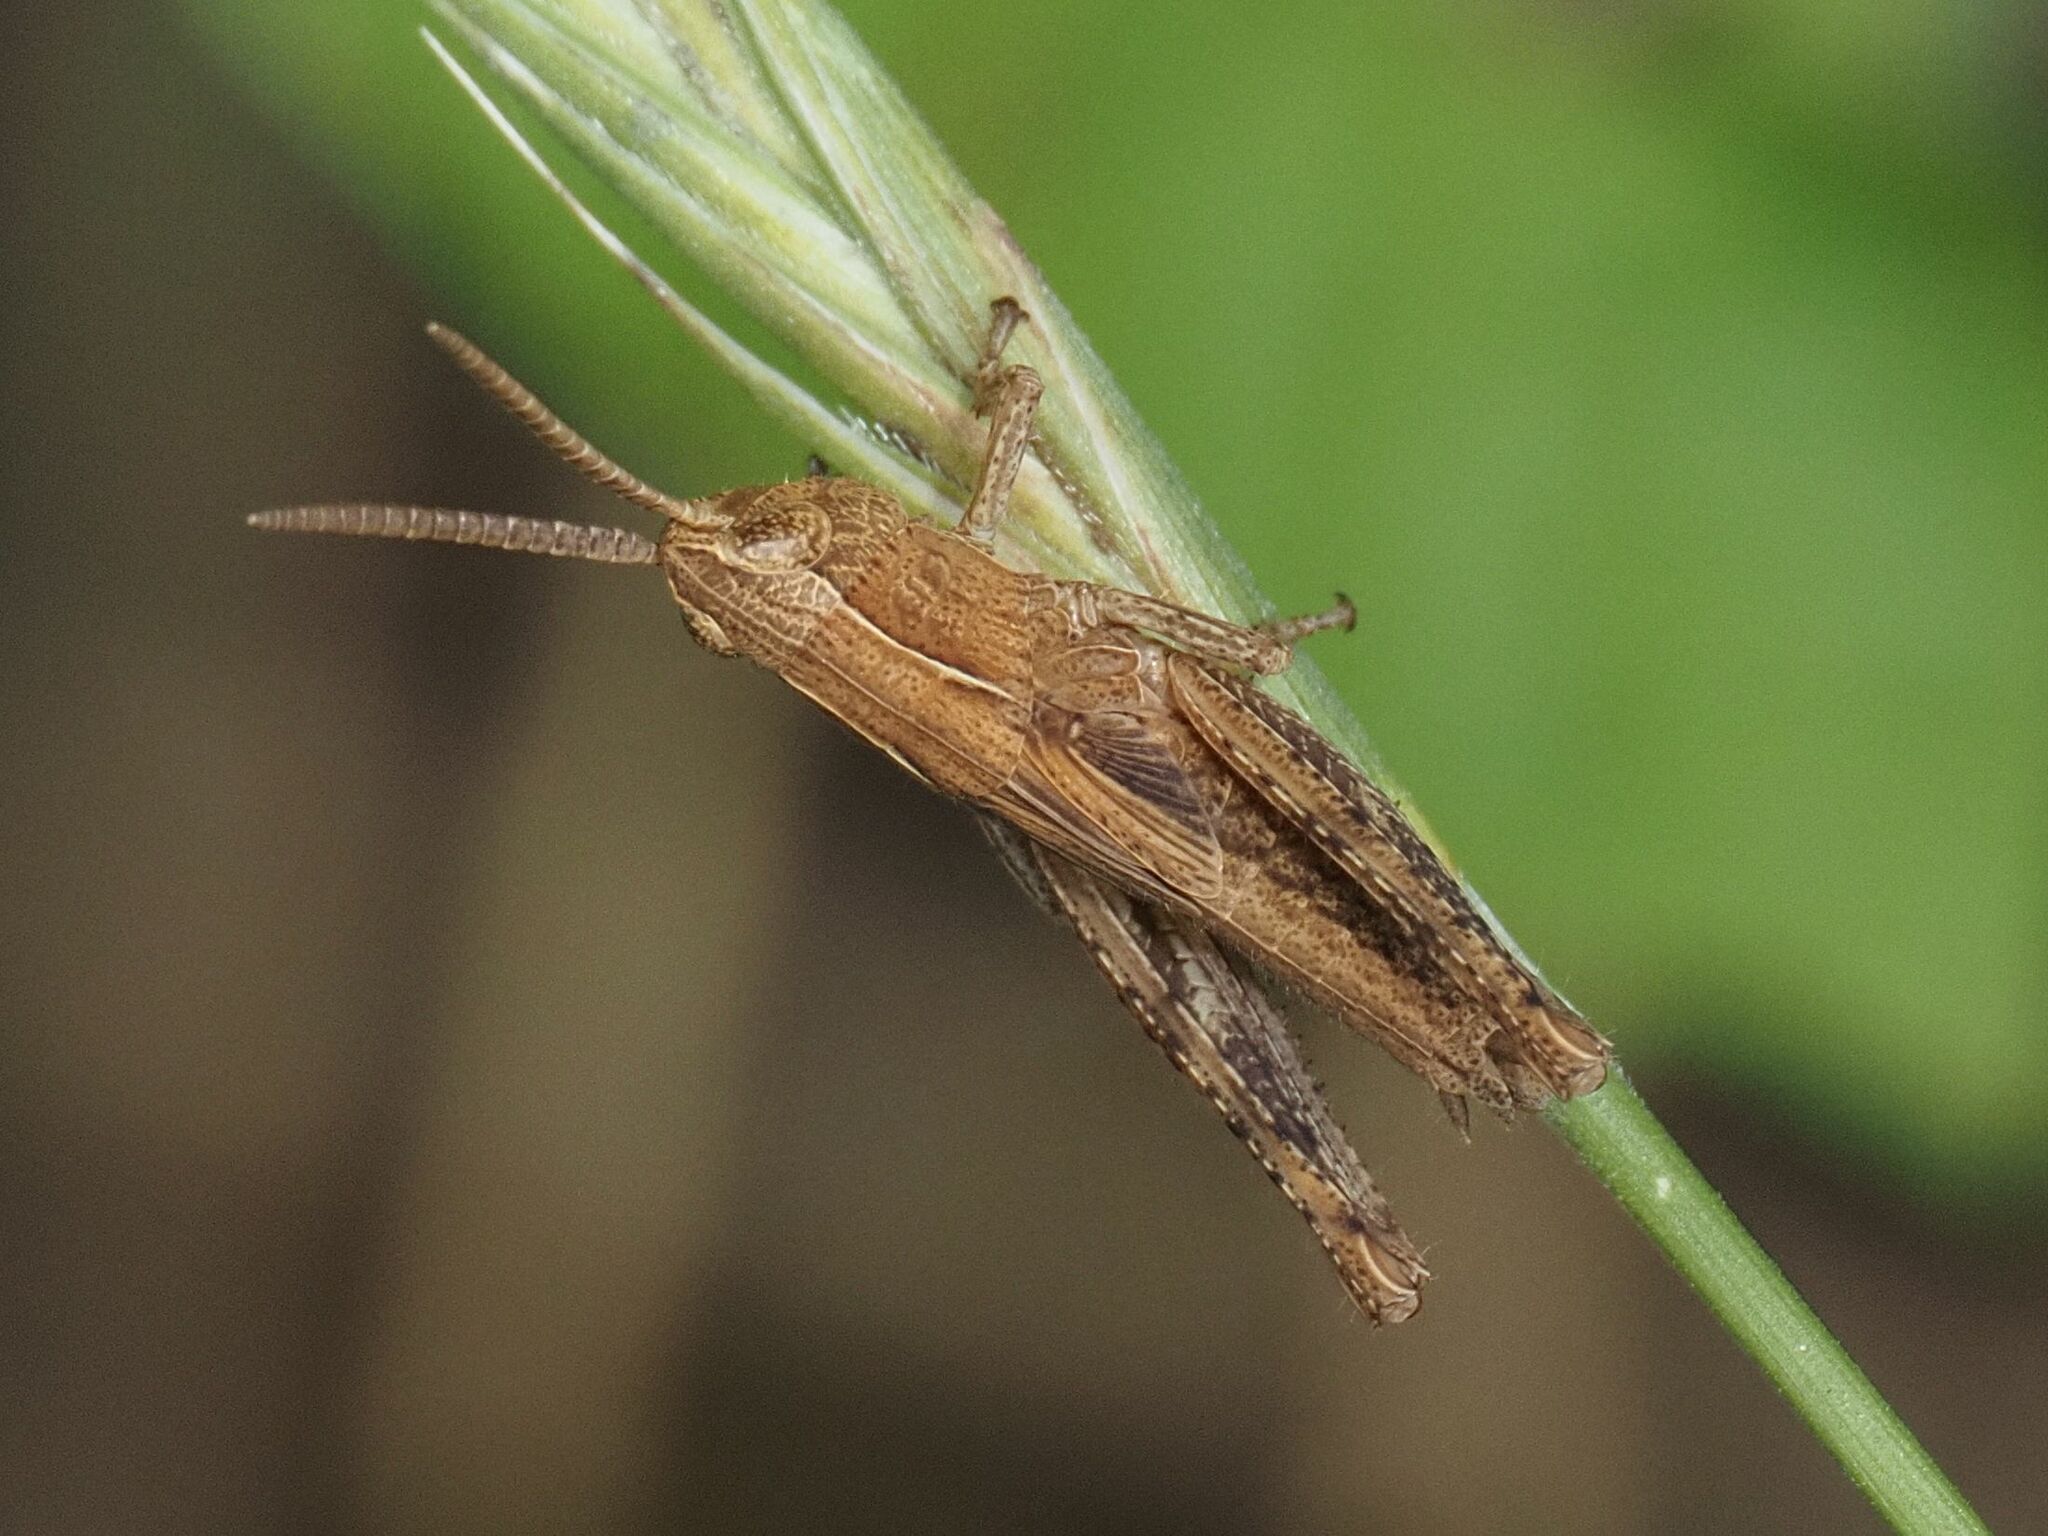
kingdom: Animalia
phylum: Arthropoda
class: Insecta
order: Orthoptera
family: Acrididae
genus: Chorthippus
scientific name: Chorthippus dorsatus
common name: Steppe grasshopper
